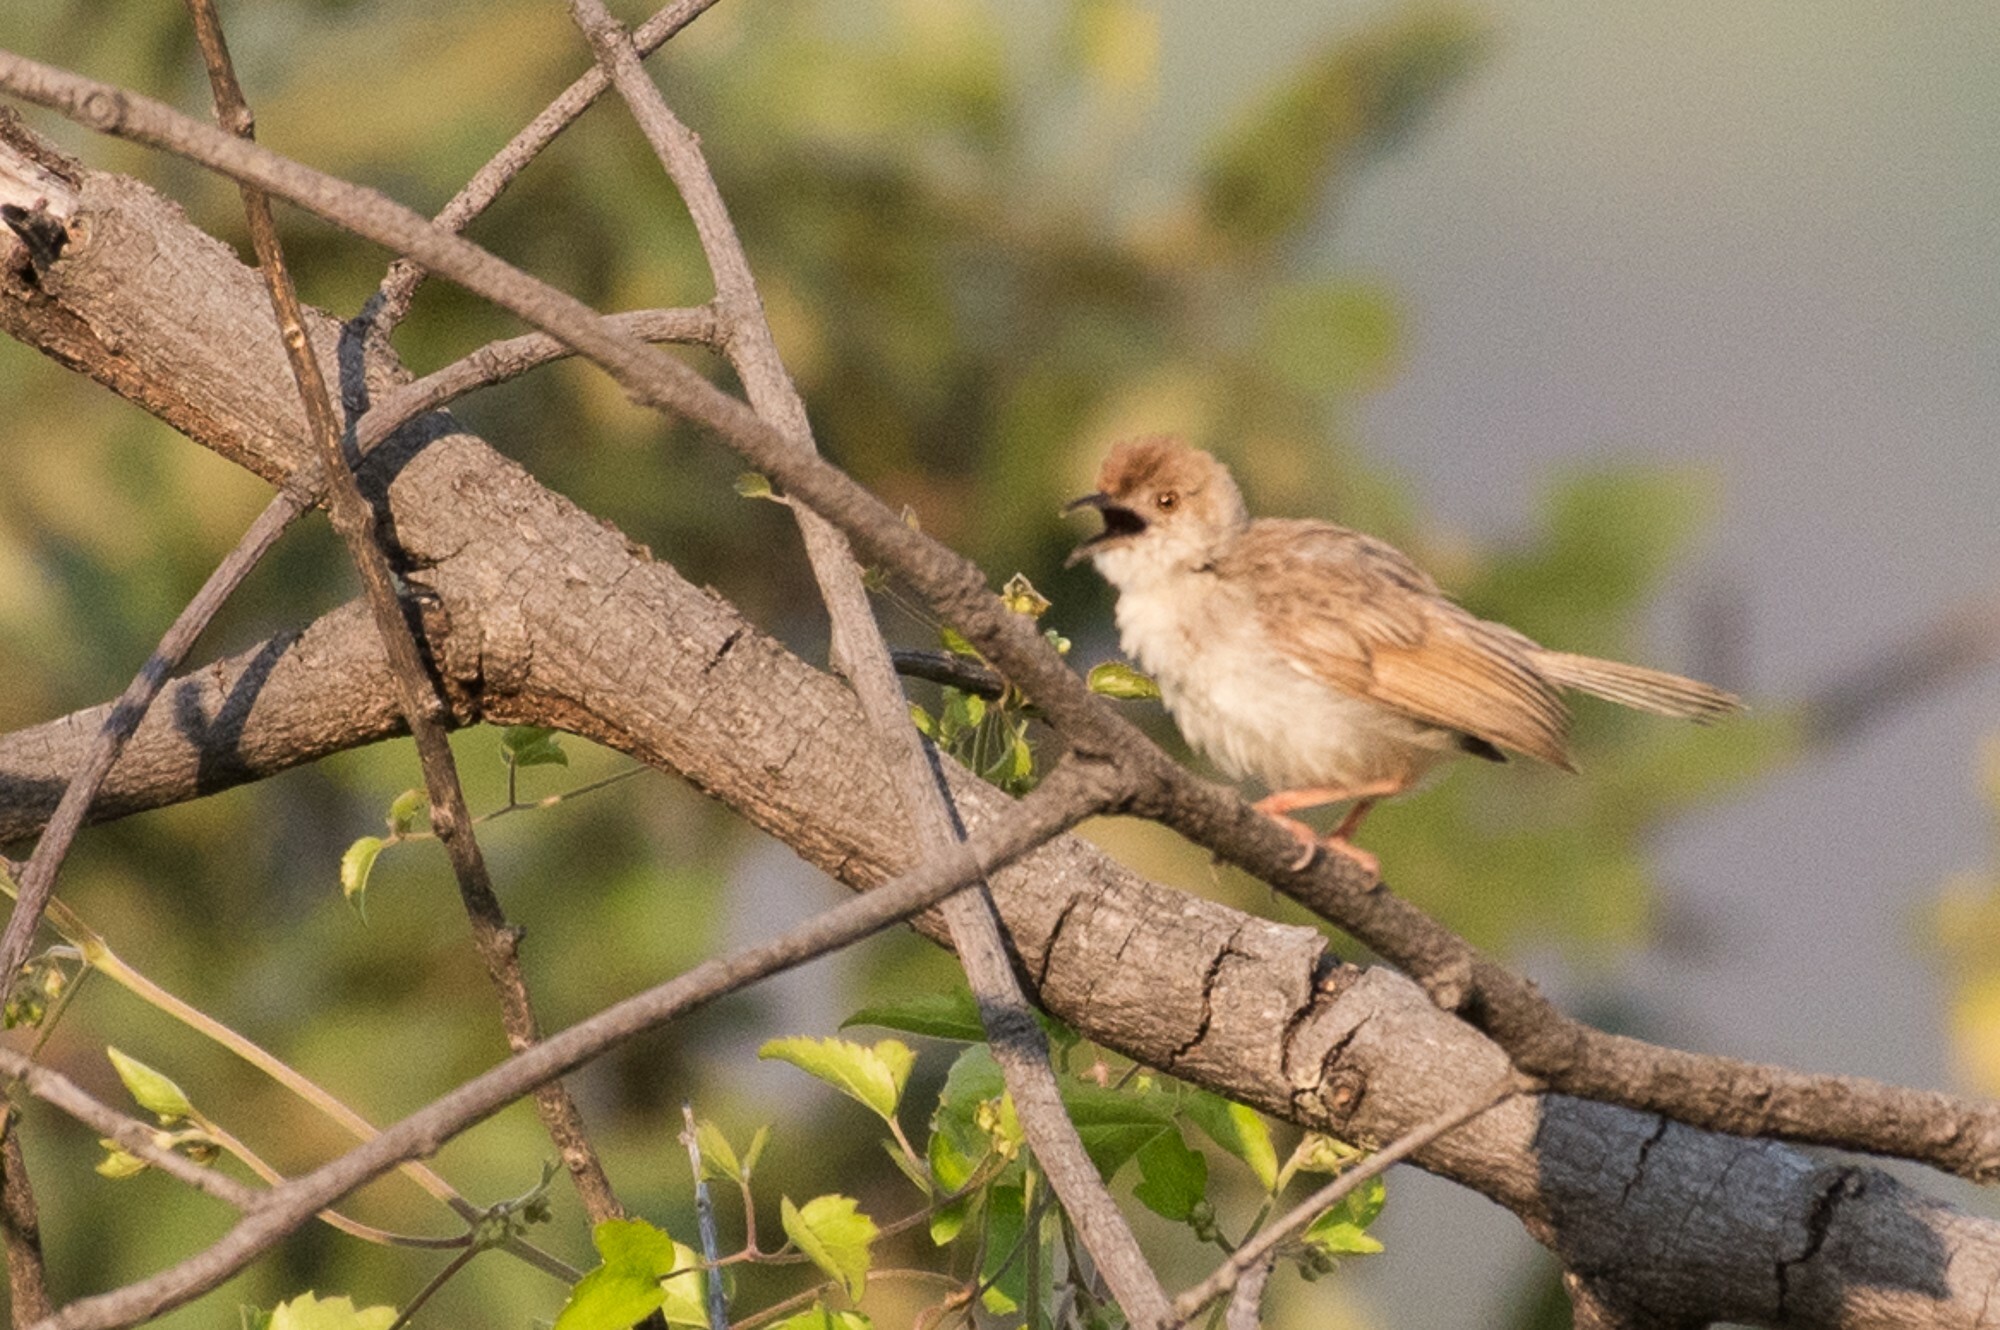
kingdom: Animalia
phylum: Chordata
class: Aves
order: Passeriformes
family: Cisticolidae
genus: Cisticola
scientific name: Cisticola chiniana
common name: Rattling cisticola
